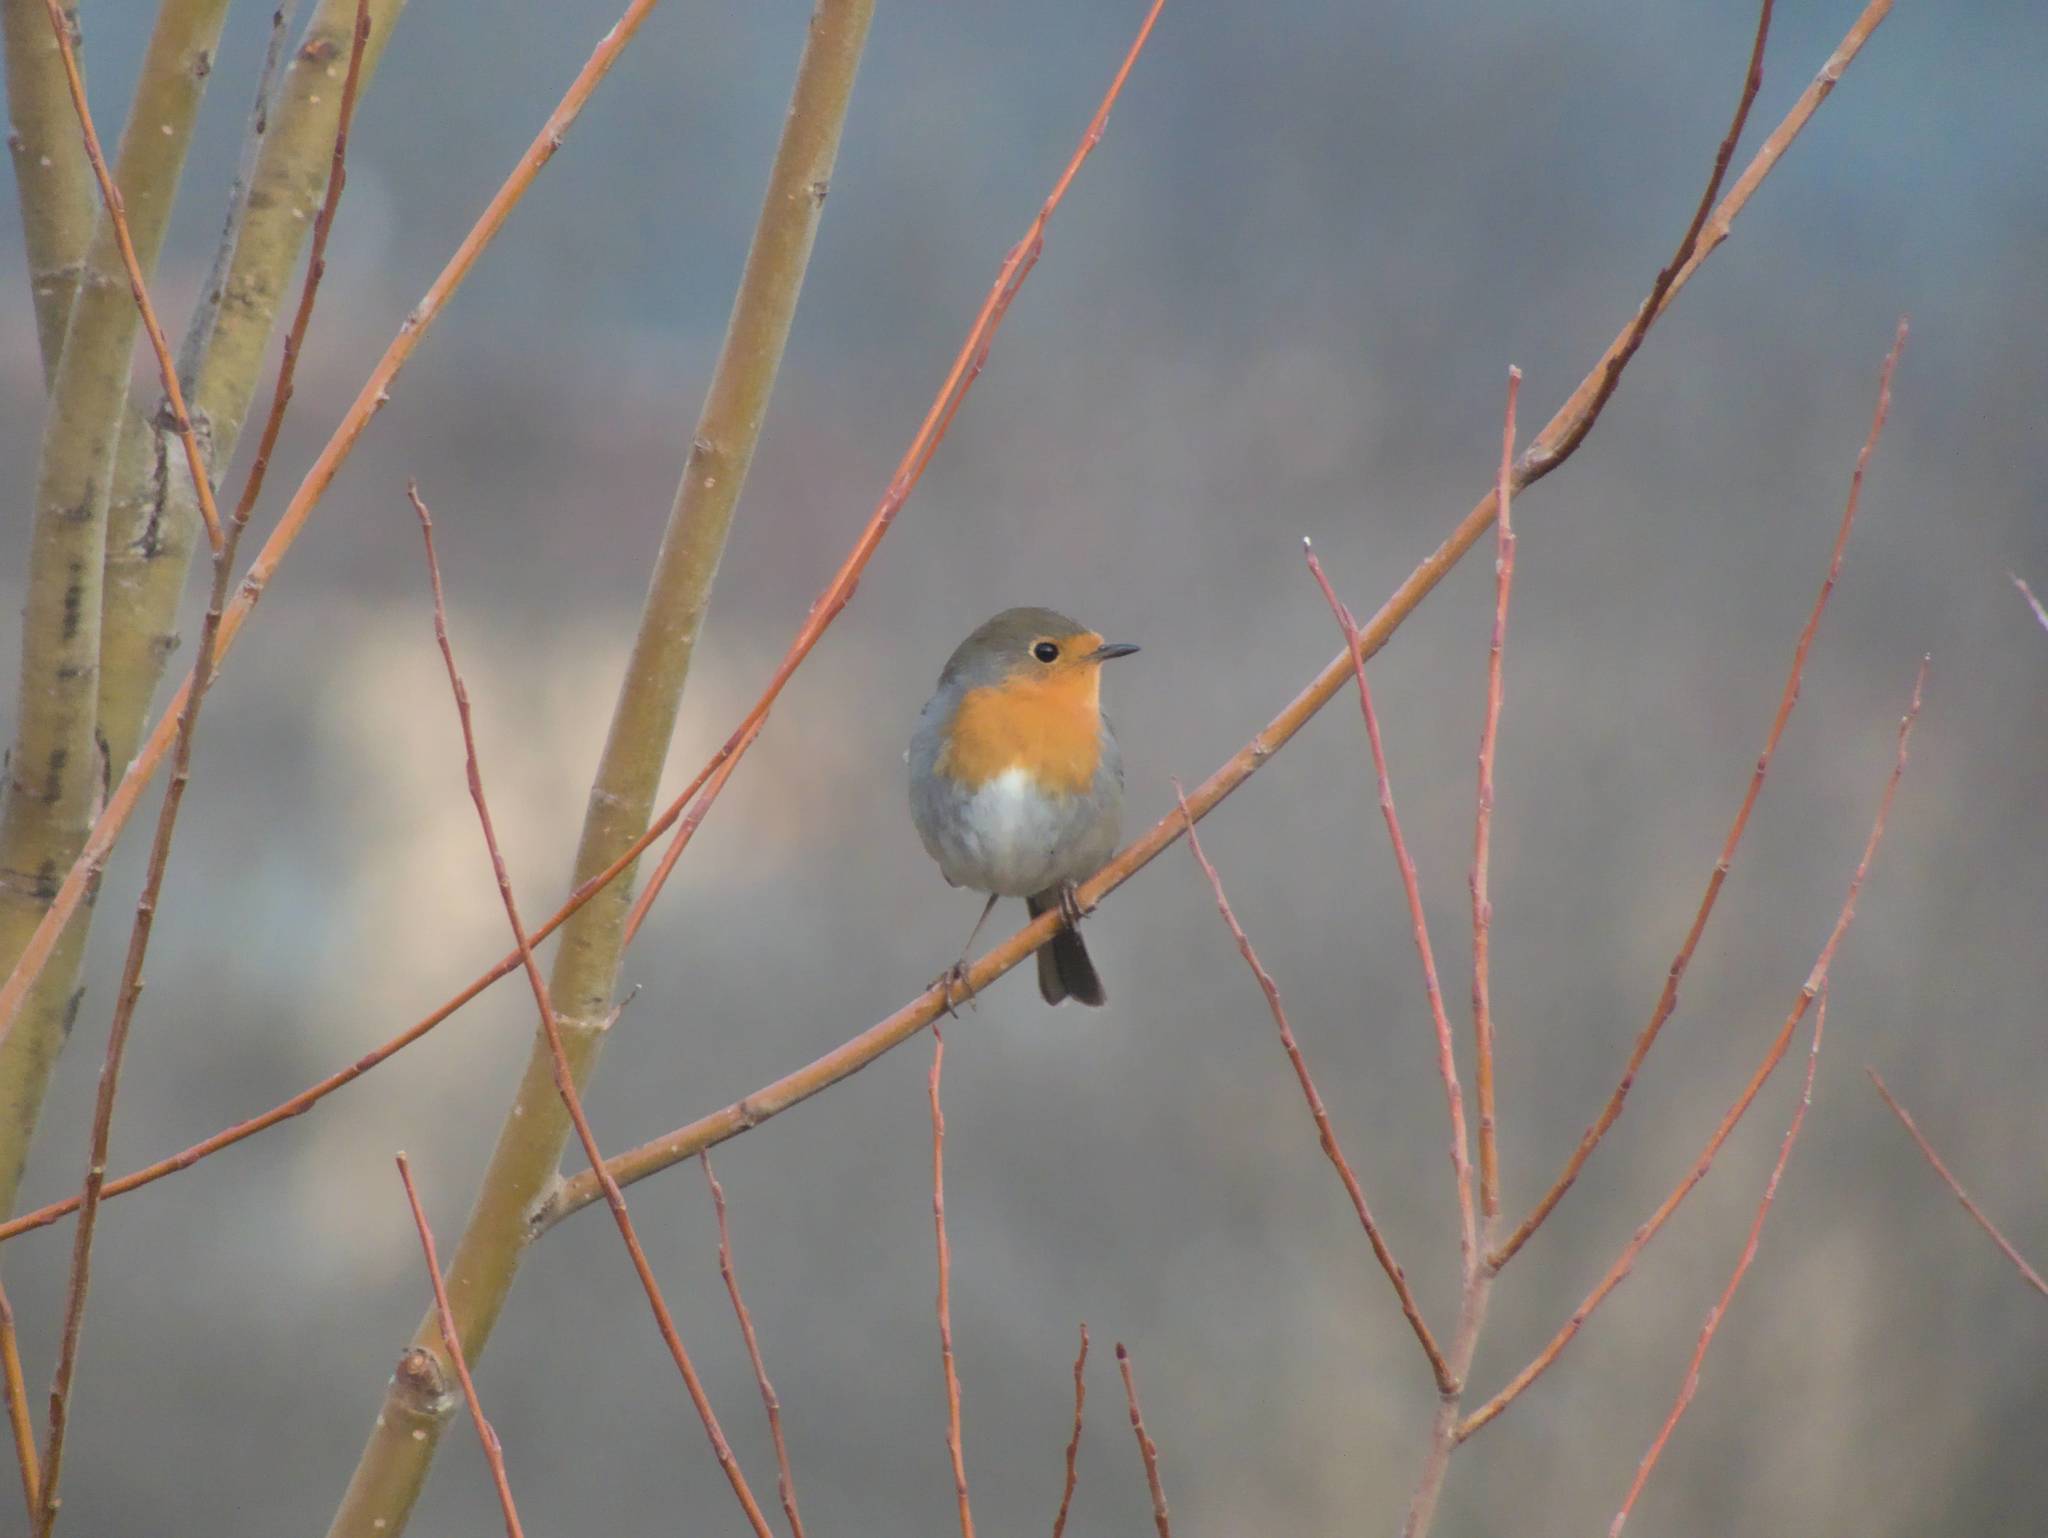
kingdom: Animalia
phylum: Chordata
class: Aves
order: Passeriformes
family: Muscicapidae
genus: Erithacus
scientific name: Erithacus rubecula
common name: European robin
